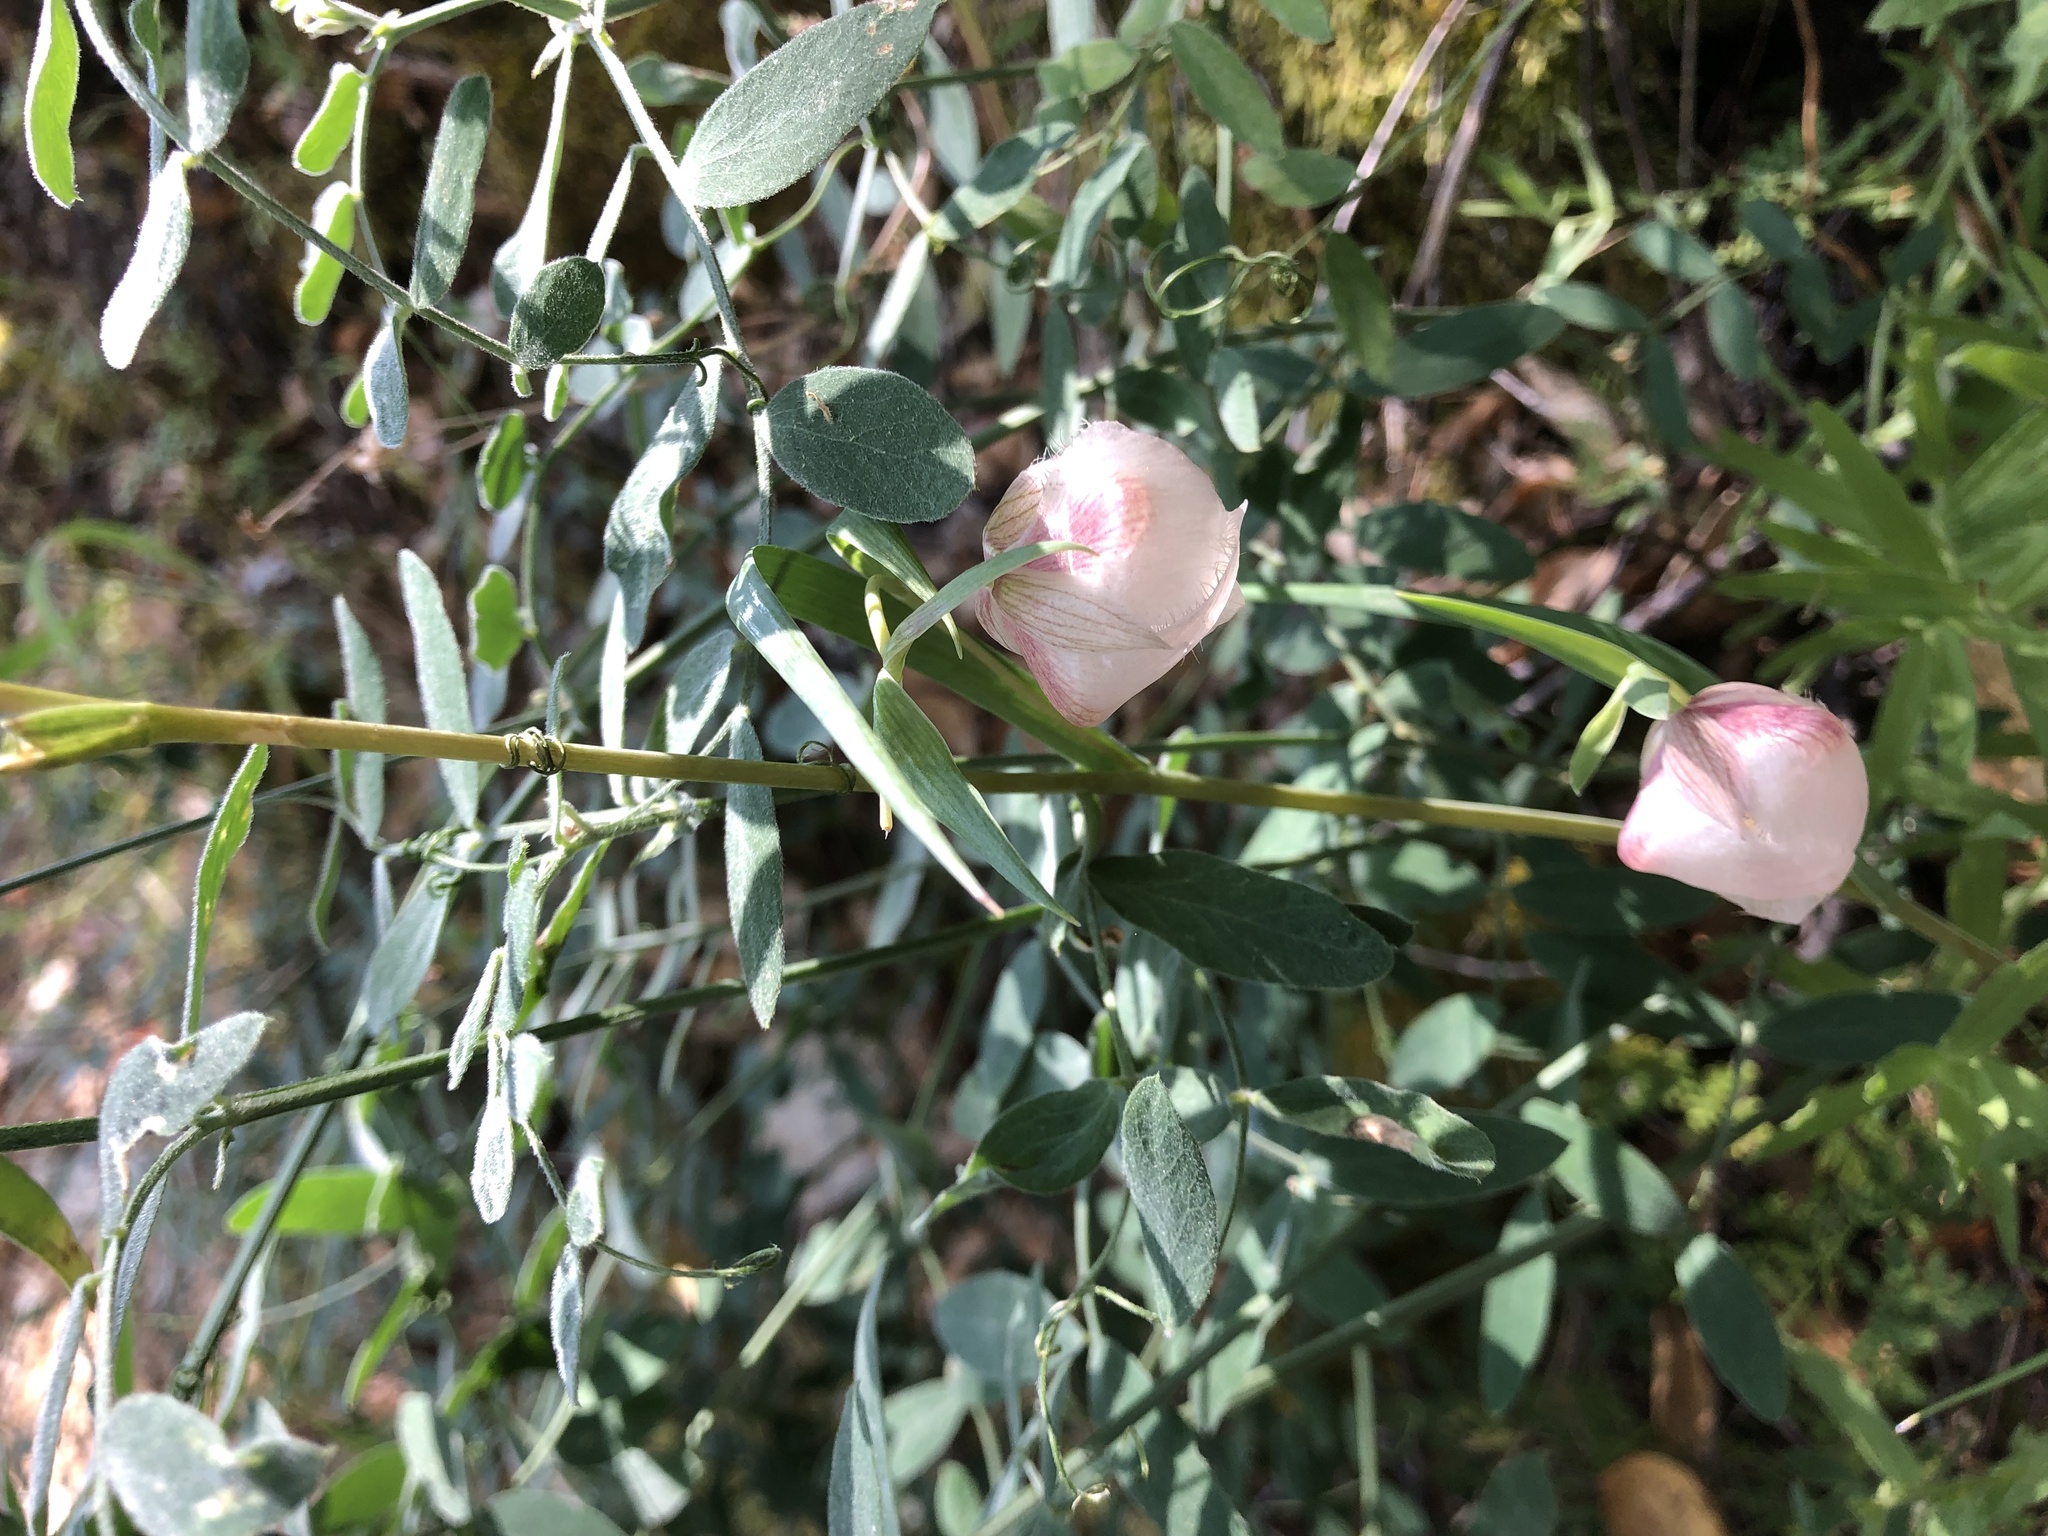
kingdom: Plantae
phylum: Tracheophyta
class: Liliopsida
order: Liliales
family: Liliaceae
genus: Calochortus
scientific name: Calochortus albus
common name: Fairy-lantern
